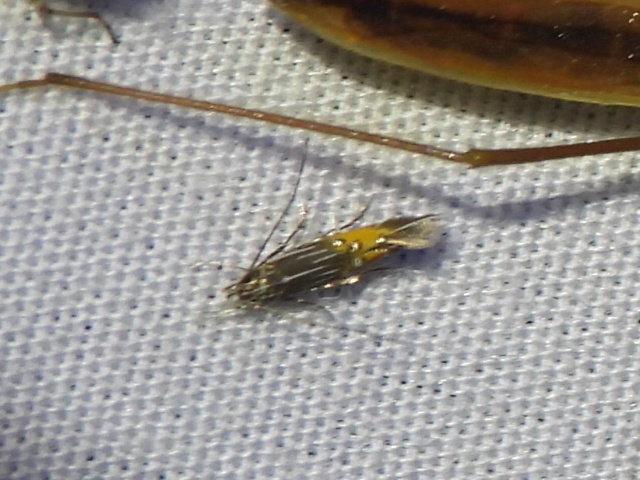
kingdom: Animalia
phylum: Arthropoda
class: Insecta
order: Lepidoptera
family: Cosmopterigidae
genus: Cosmopterix
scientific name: Cosmopterix
